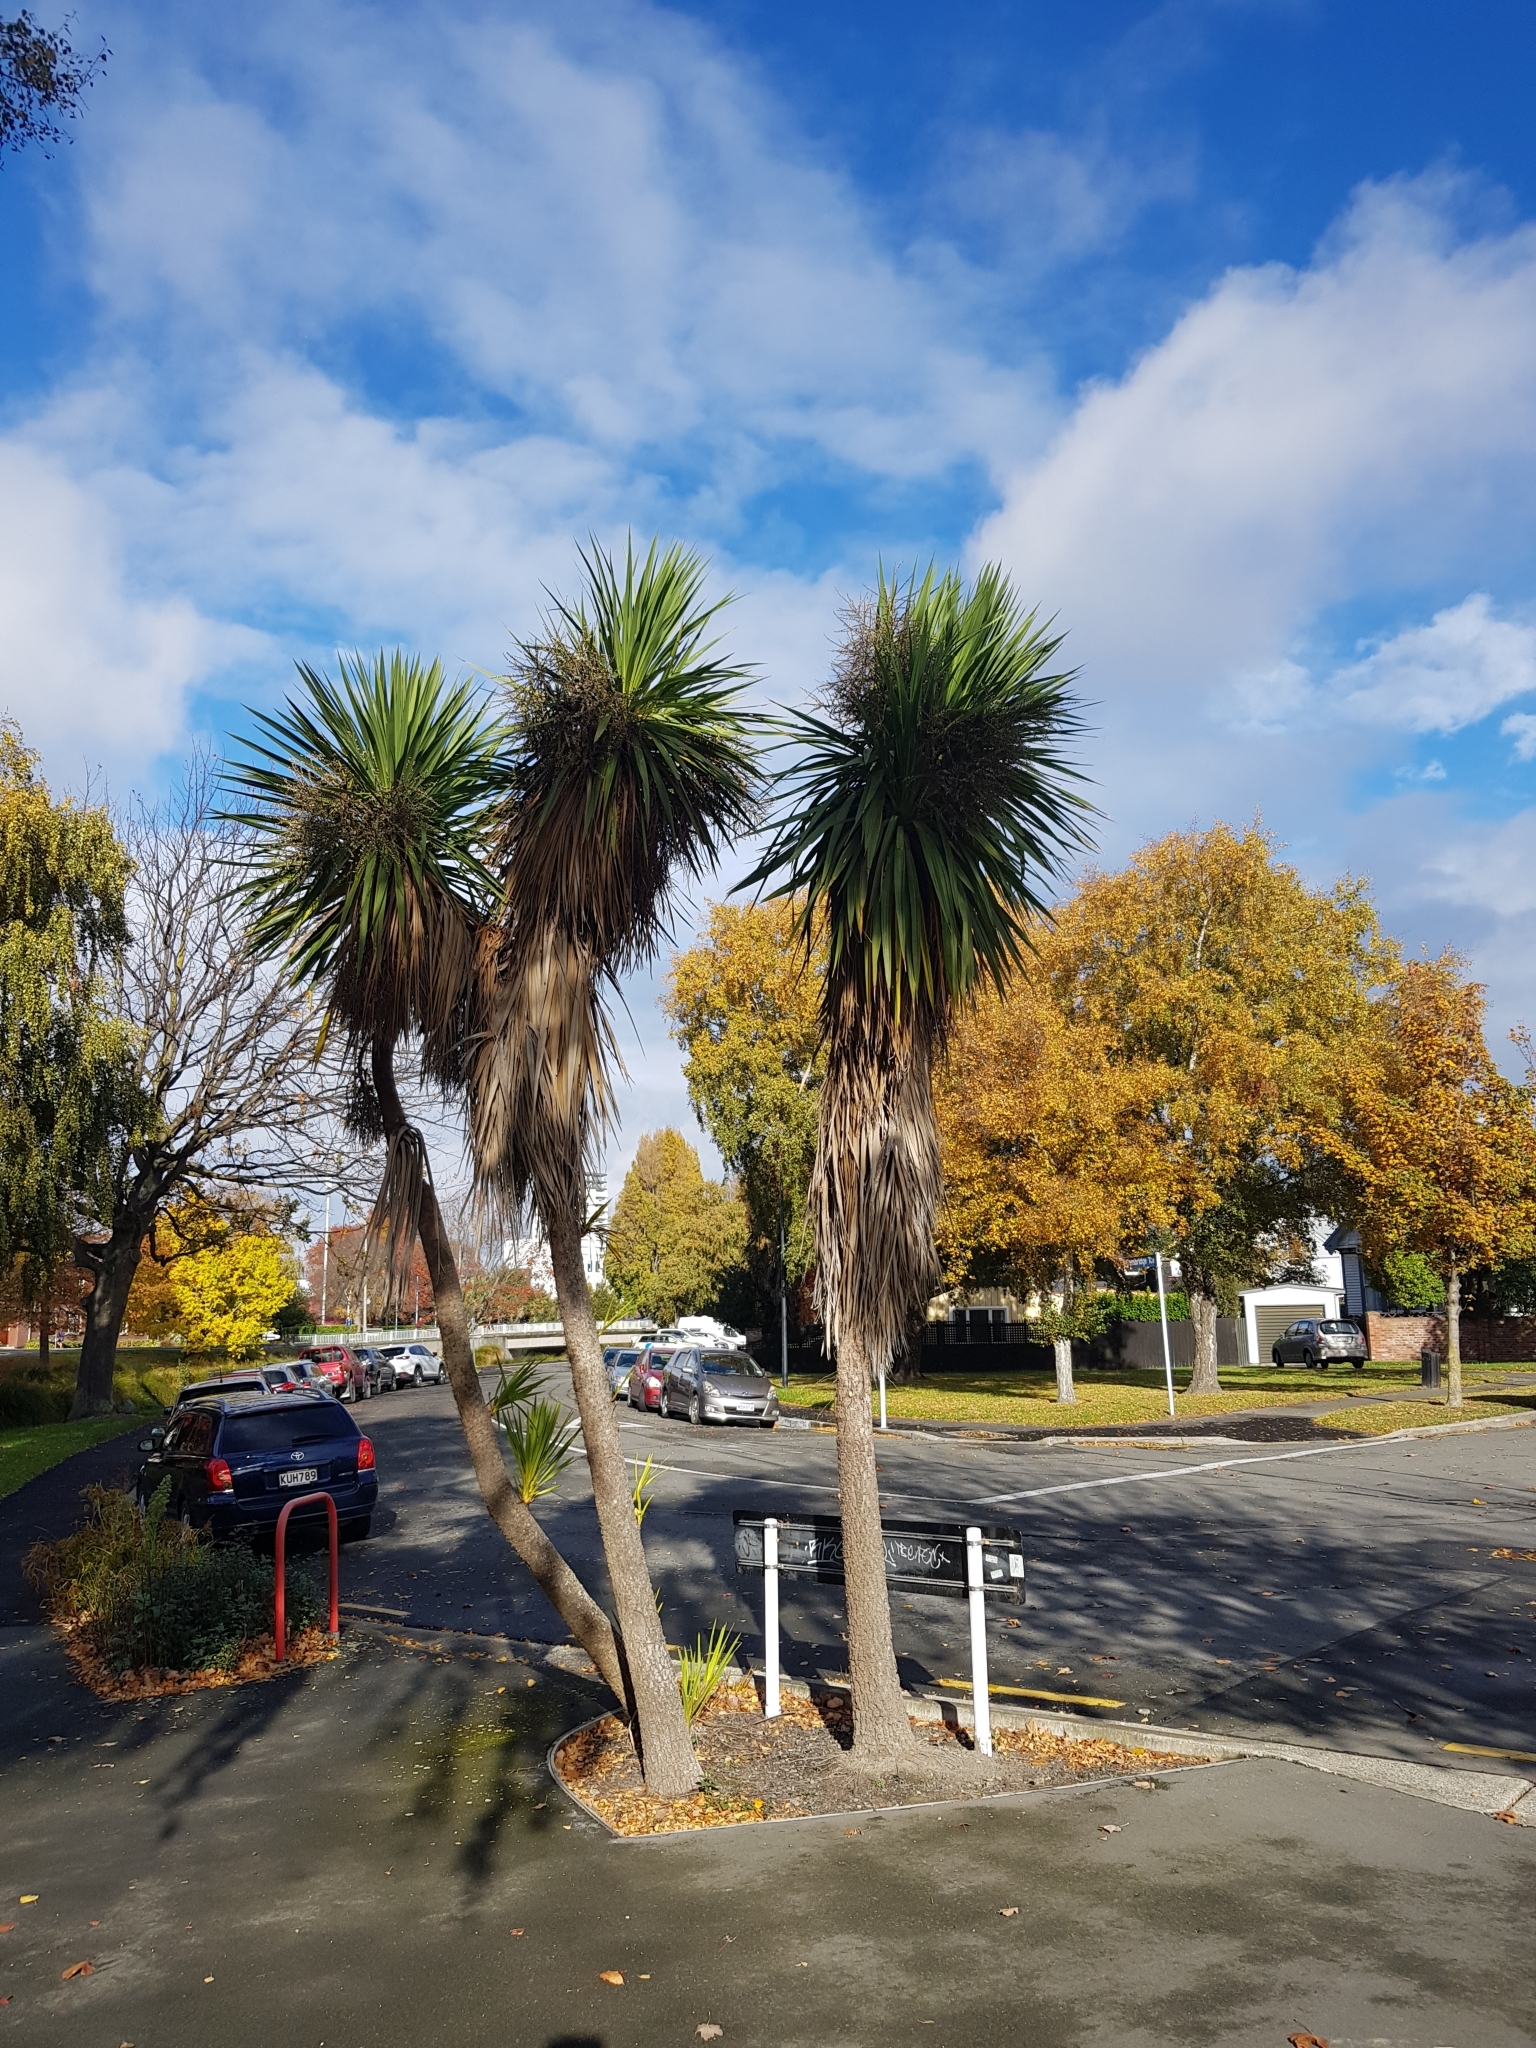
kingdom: Plantae
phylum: Tracheophyta
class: Liliopsida
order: Asparagales
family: Asparagaceae
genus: Cordyline
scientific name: Cordyline australis
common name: Cabbage-palm
